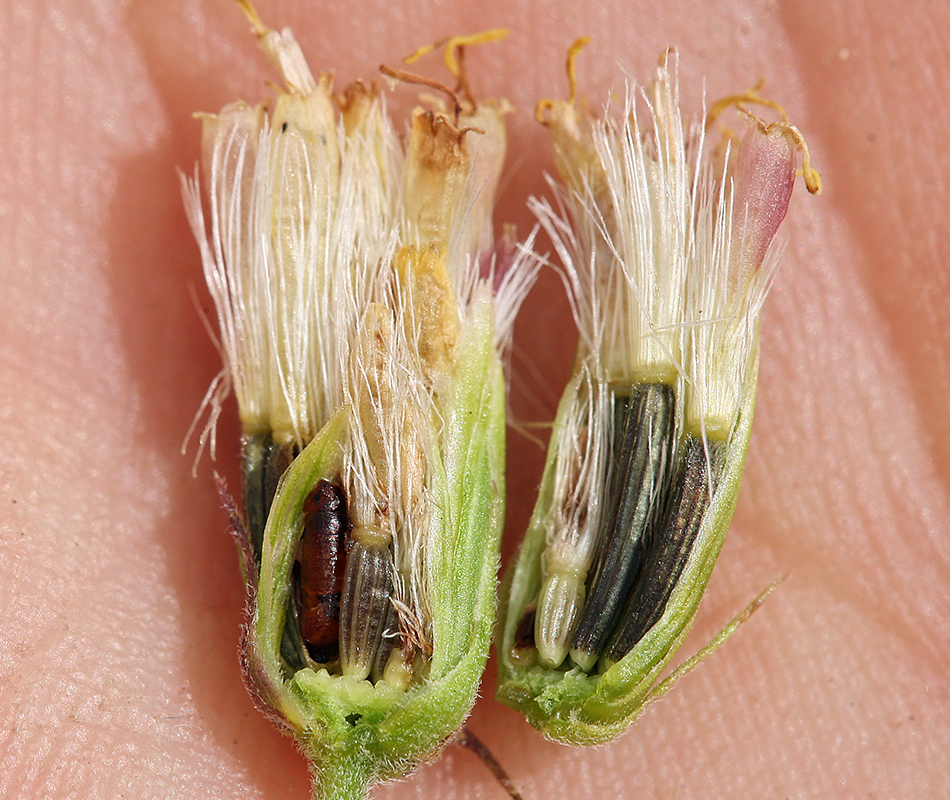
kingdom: Plantae
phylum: Tracheophyta
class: Magnoliopsida
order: Asterales
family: Asteraceae
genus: Brickellia
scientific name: Brickellia grandiflora
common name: Large-flowered brickellia
